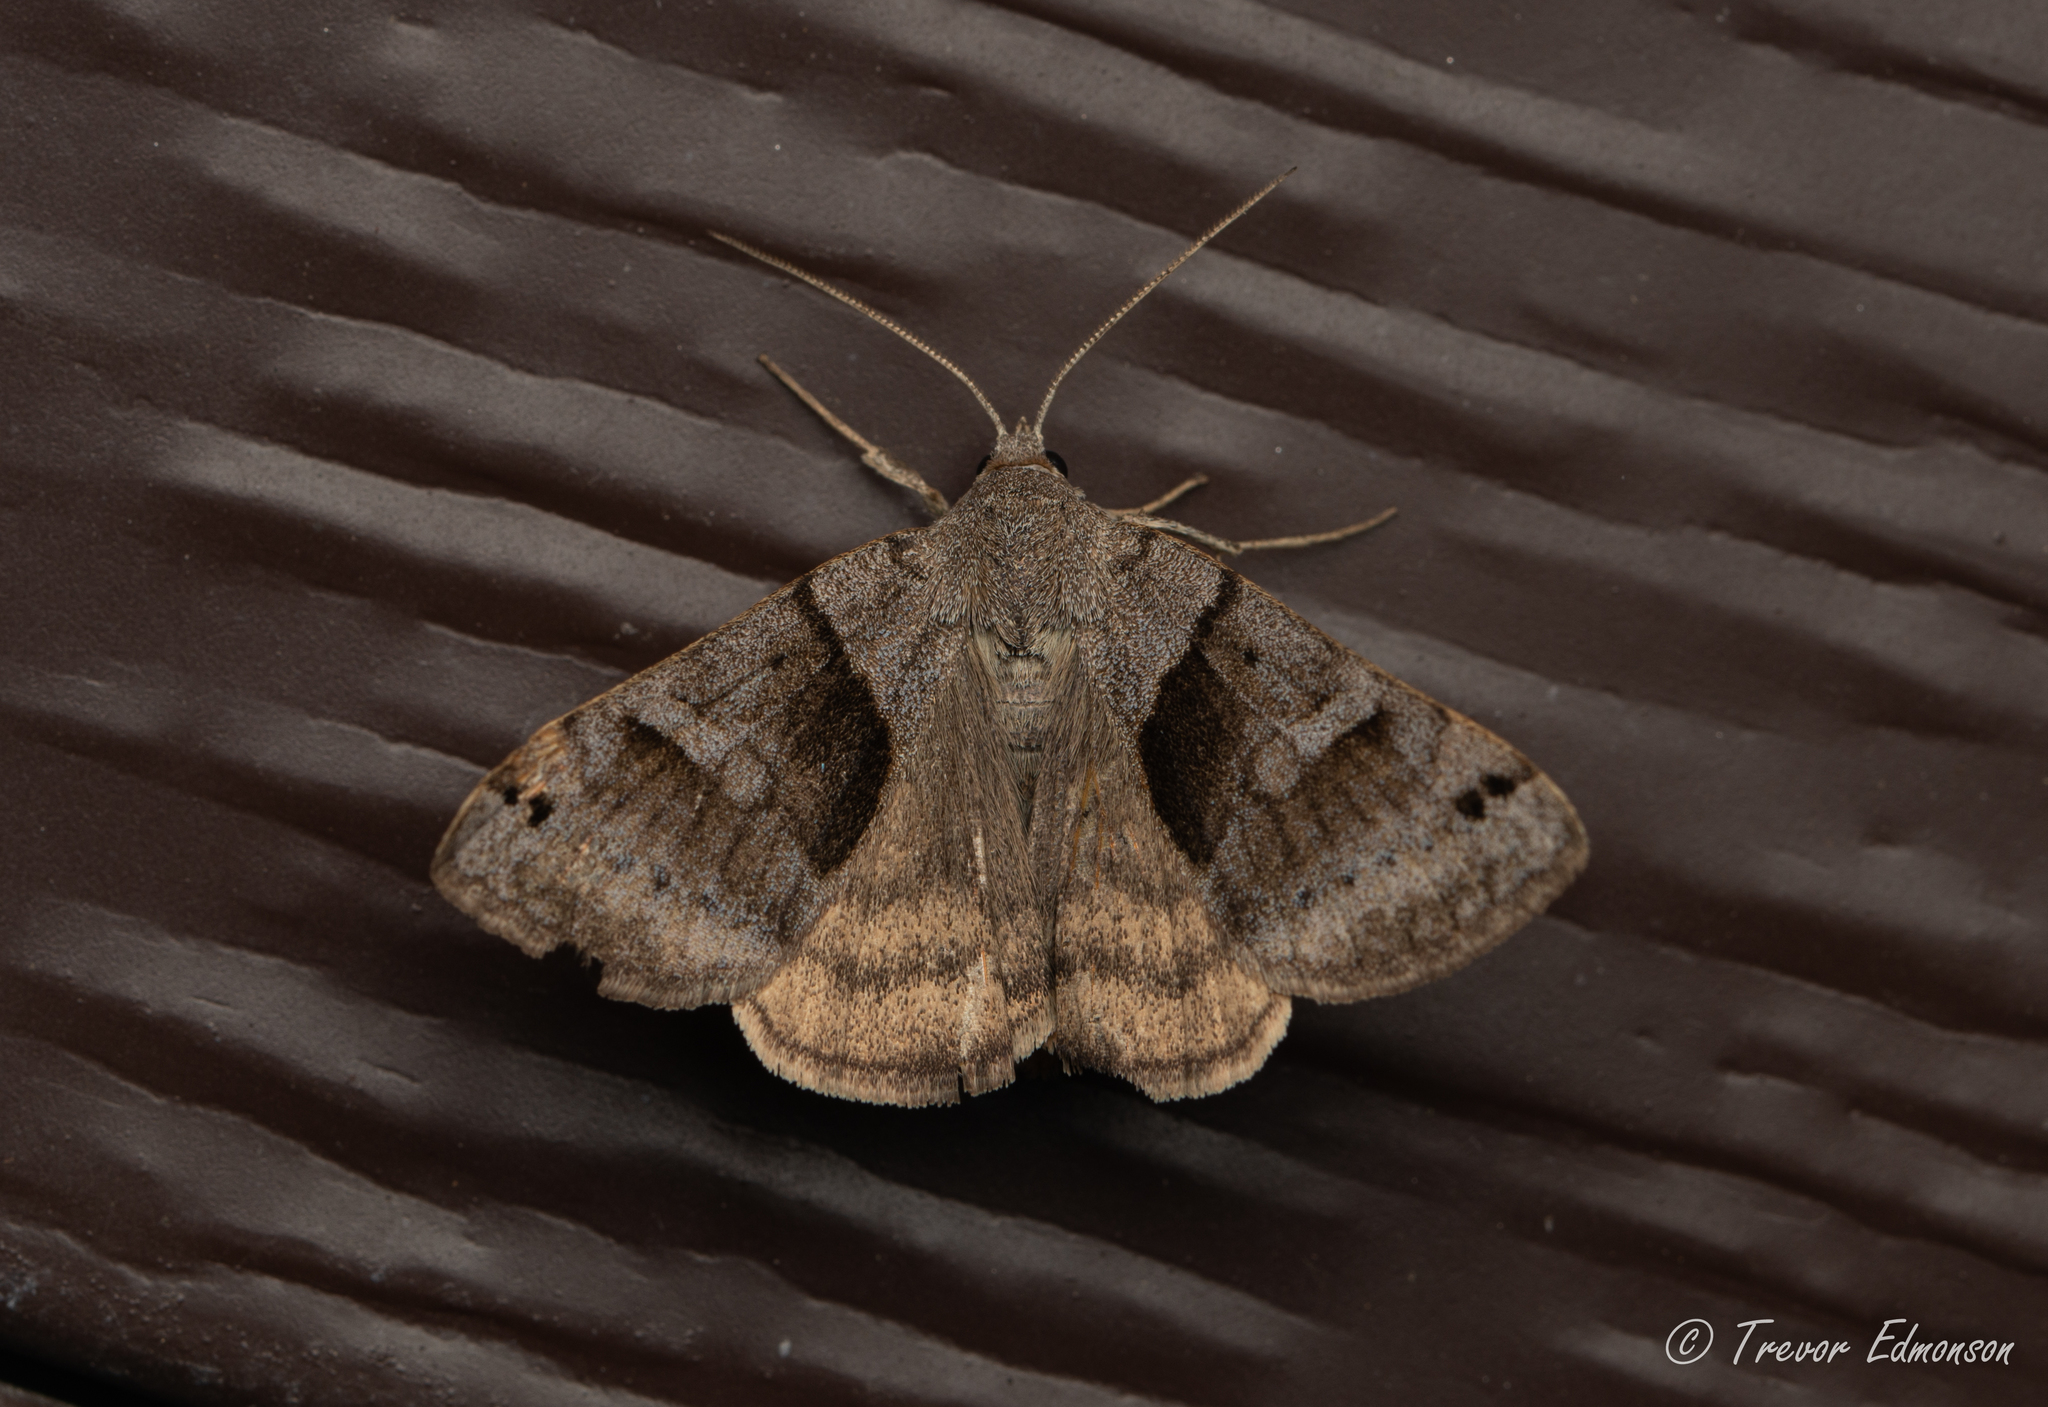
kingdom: Animalia
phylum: Arthropoda
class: Insecta
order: Lepidoptera
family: Erebidae
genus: Caenurgina
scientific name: Caenurgina crassiuscula
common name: Double-barred
